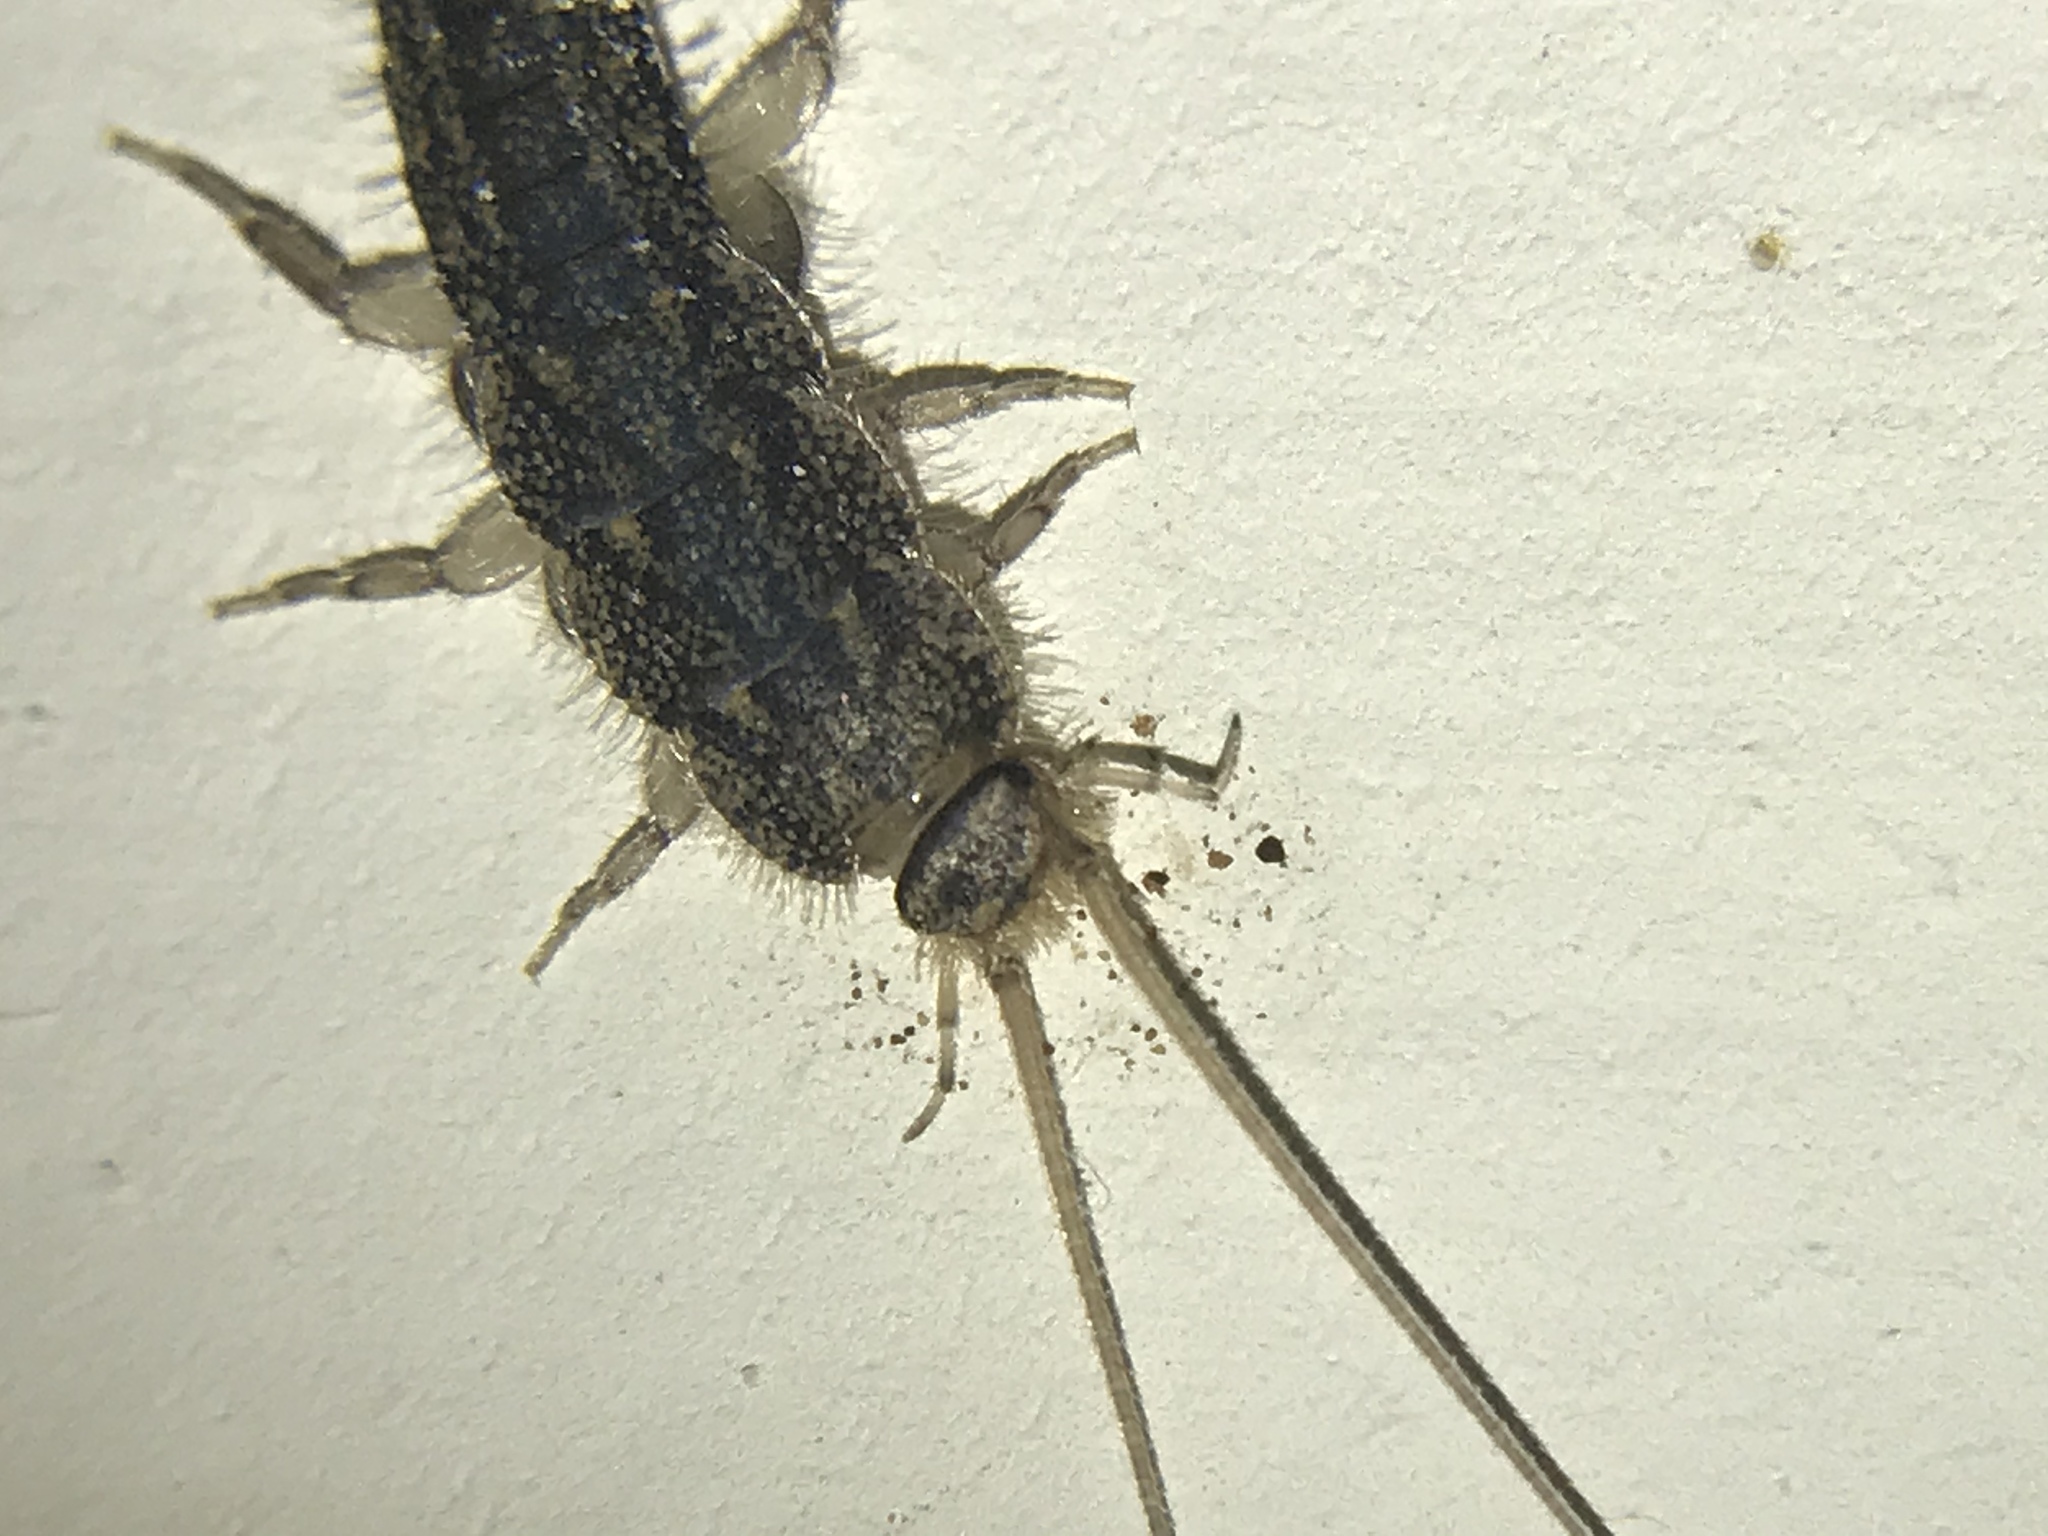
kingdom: Animalia
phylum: Arthropoda
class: Insecta
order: Zygentoma
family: Lepismatidae
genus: Ctenolepisma
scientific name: Ctenolepisma lineata
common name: Four-lined silverfish
